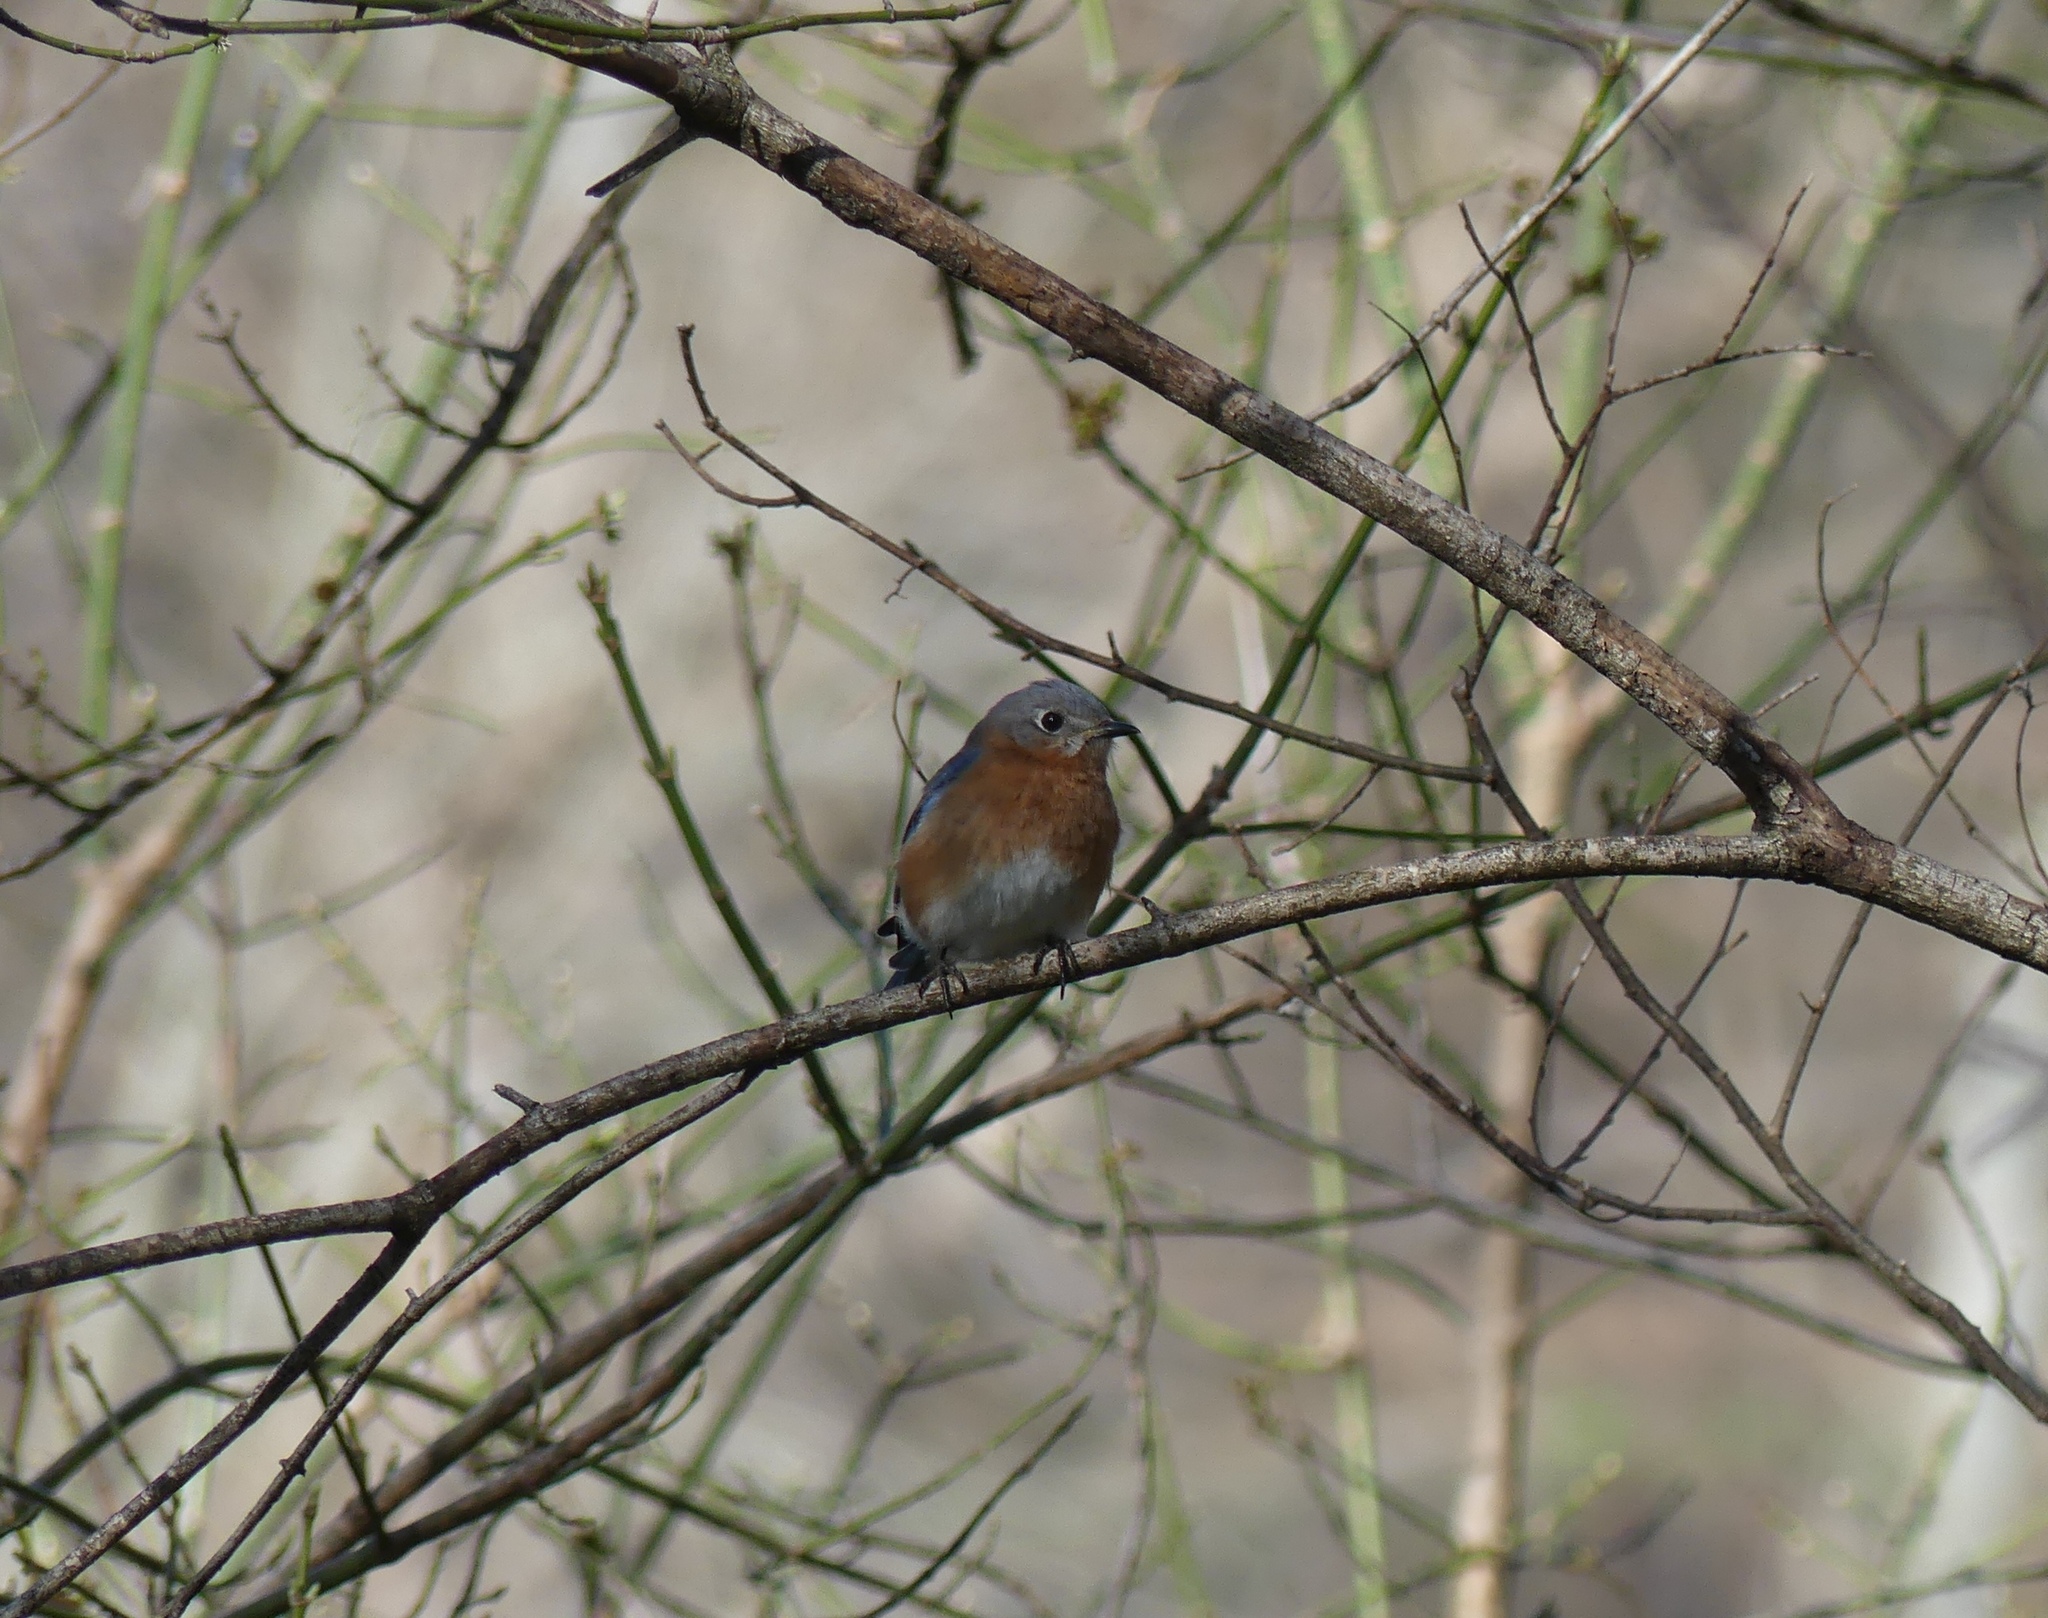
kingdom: Animalia
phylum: Chordata
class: Aves
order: Passeriformes
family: Turdidae
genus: Sialia
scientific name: Sialia sialis
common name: Eastern bluebird
